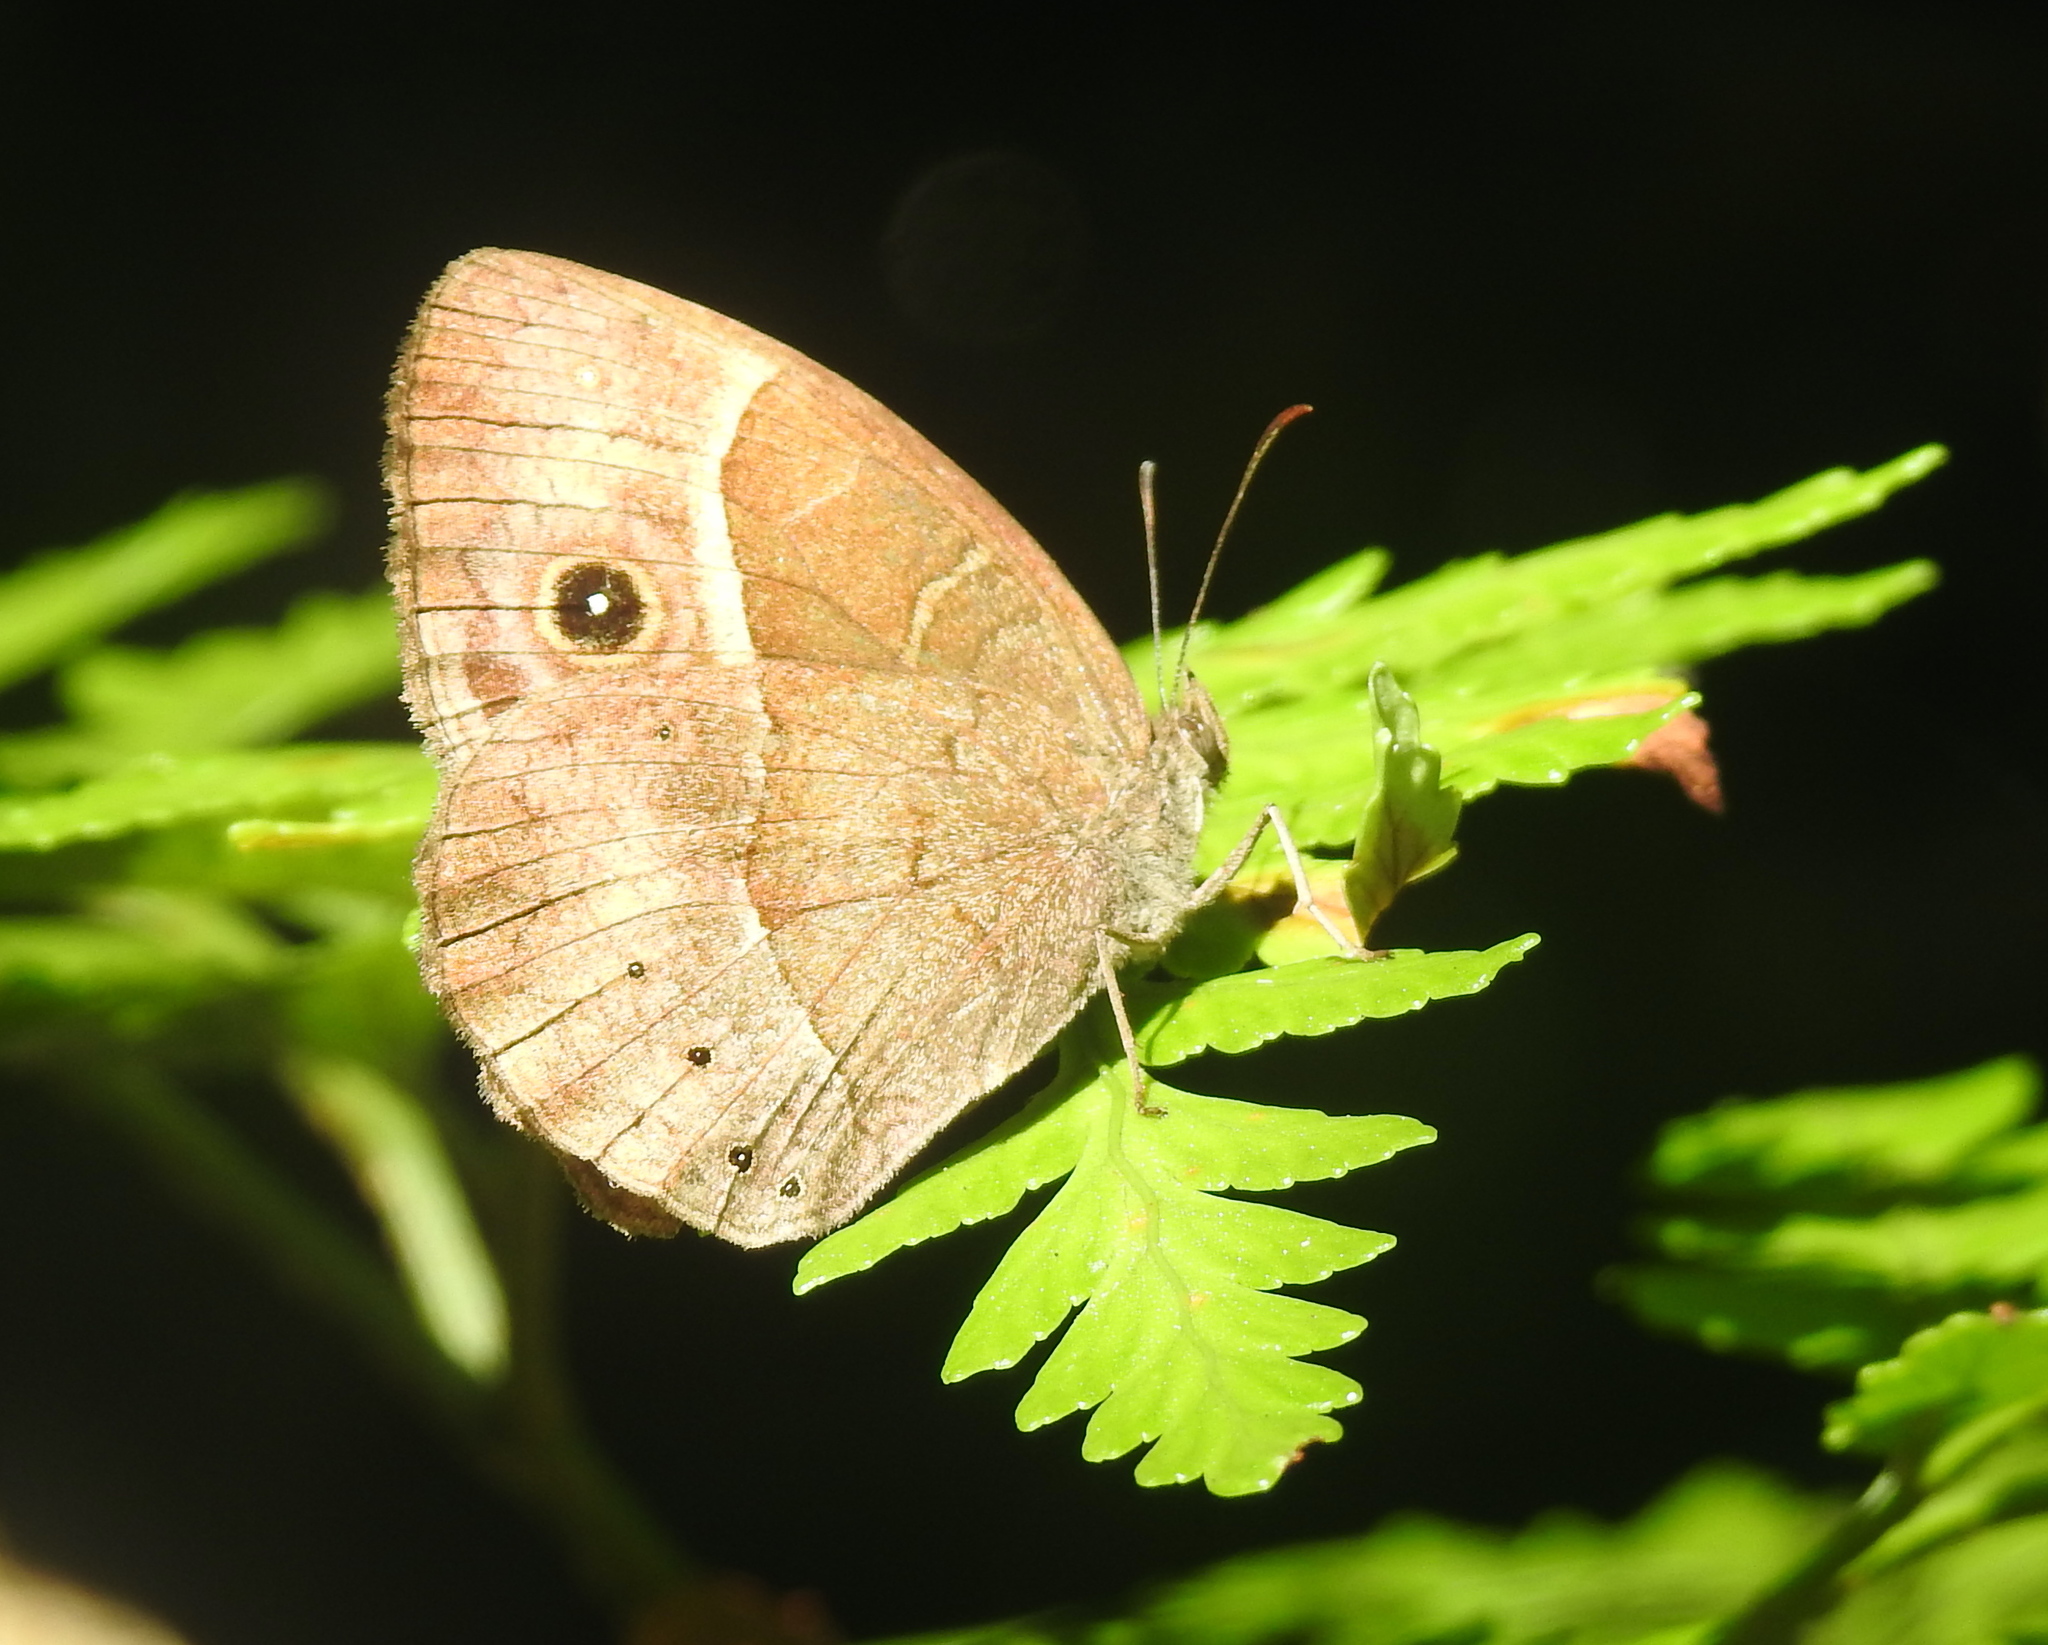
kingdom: Animalia
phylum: Arthropoda
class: Insecta
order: Lepidoptera
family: Nymphalidae
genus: Mycalesis
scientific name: Mycalesis rhacotis
